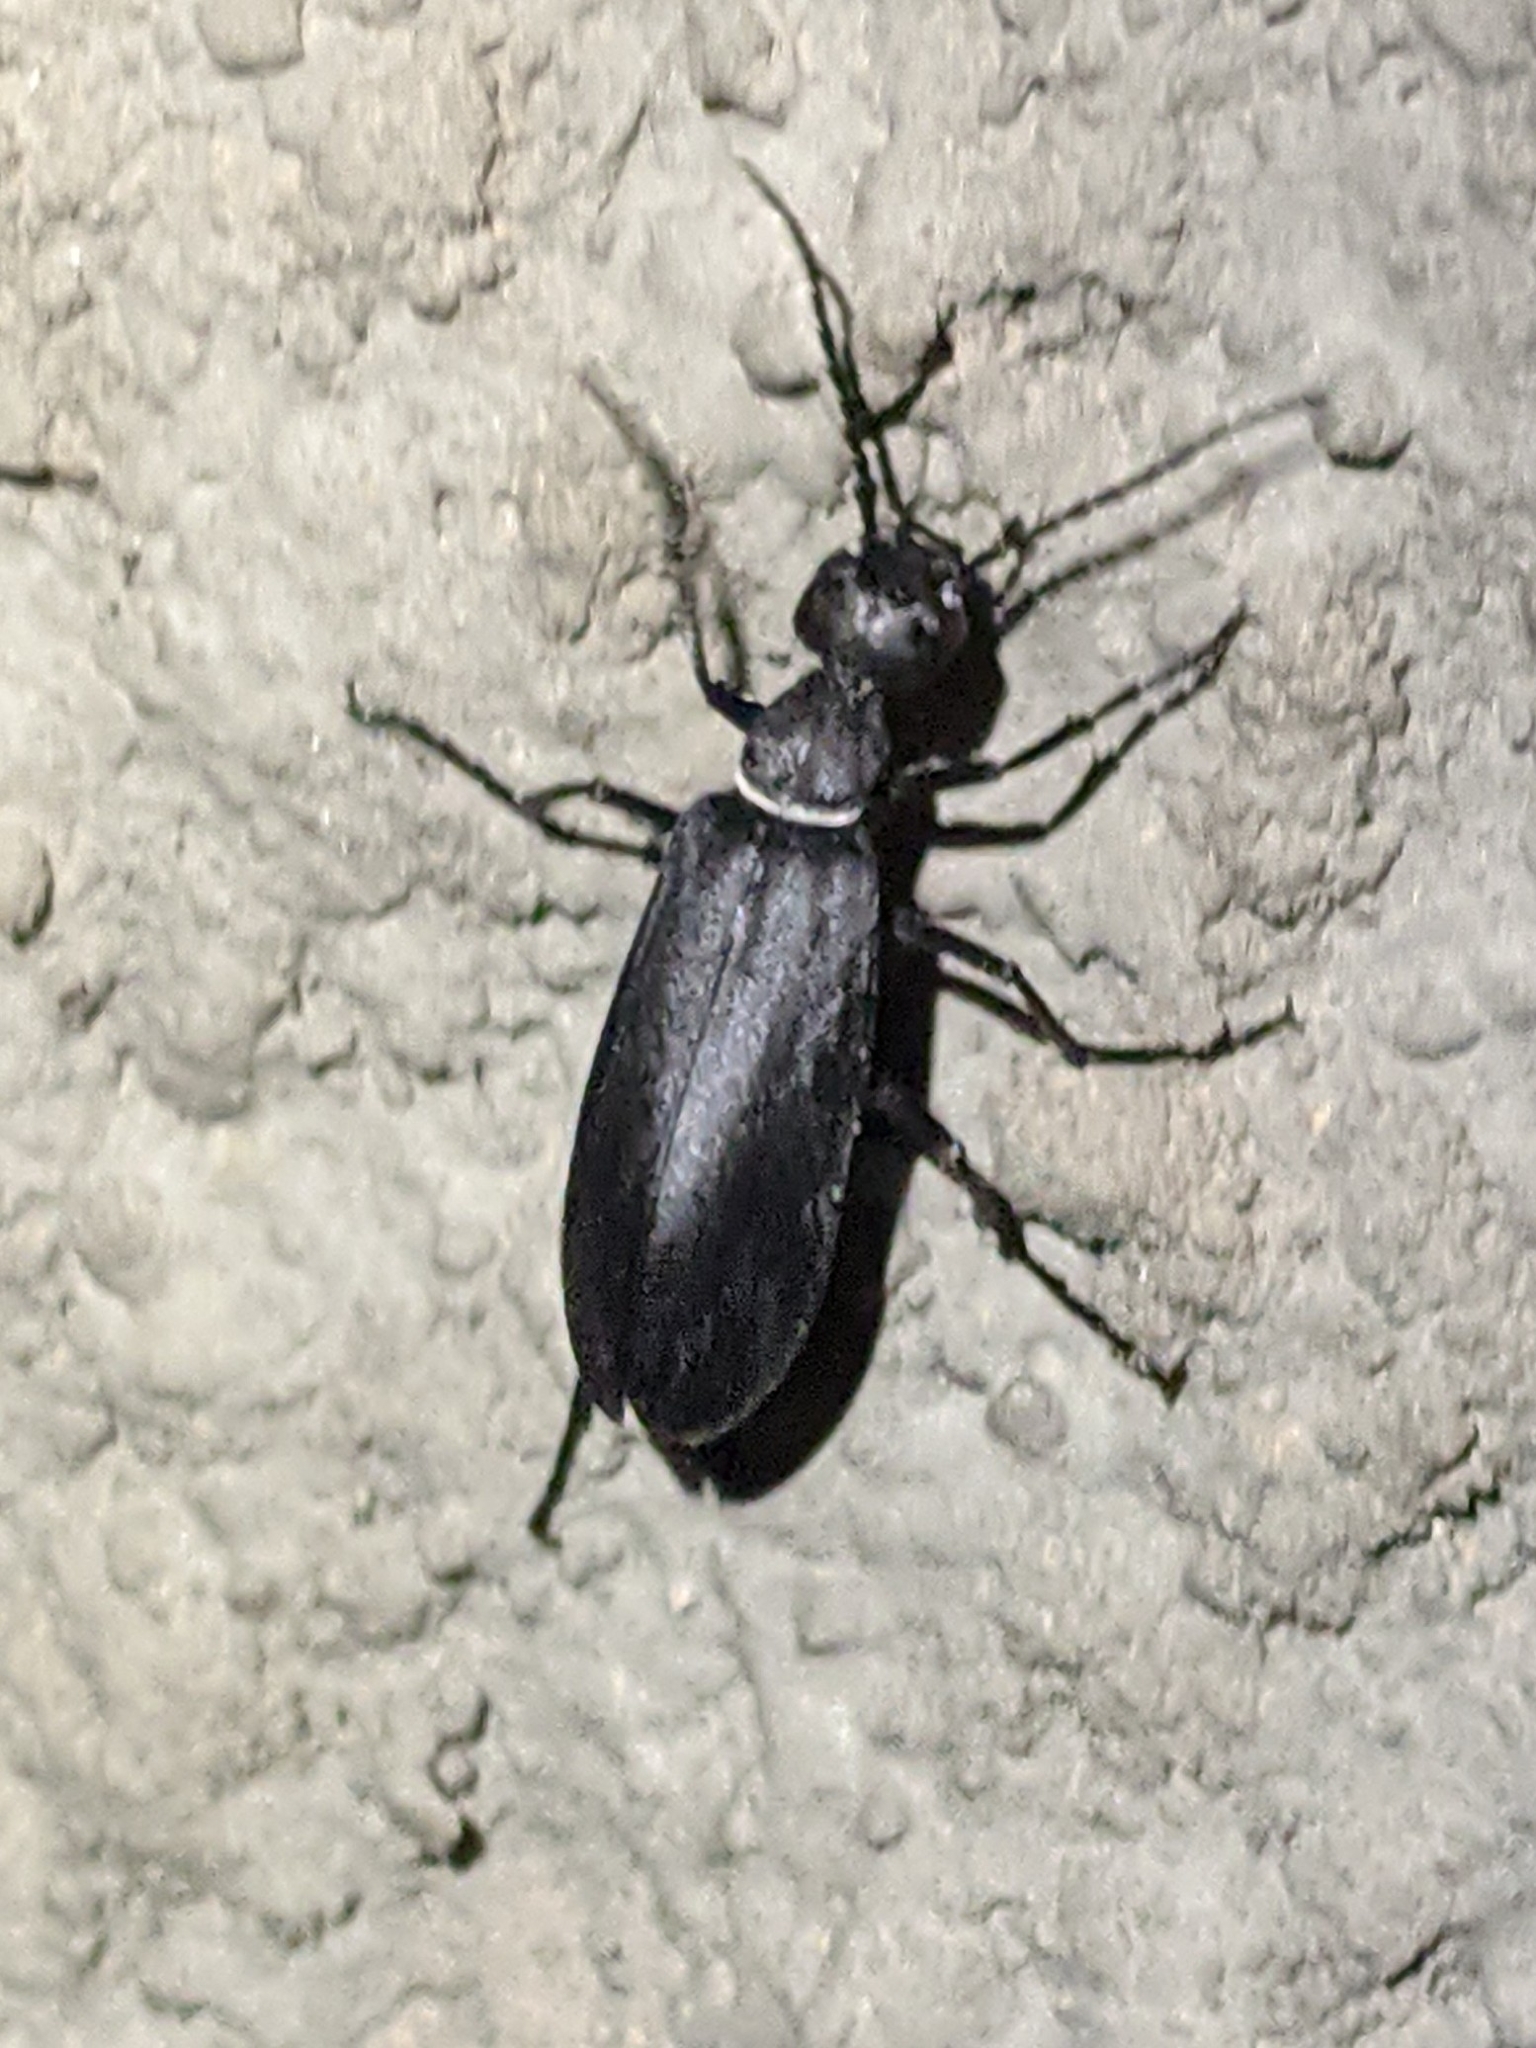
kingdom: Animalia
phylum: Arthropoda
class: Insecta
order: Coleoptera
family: Meloidae
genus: Epicauta
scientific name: Epicauta segmenta
